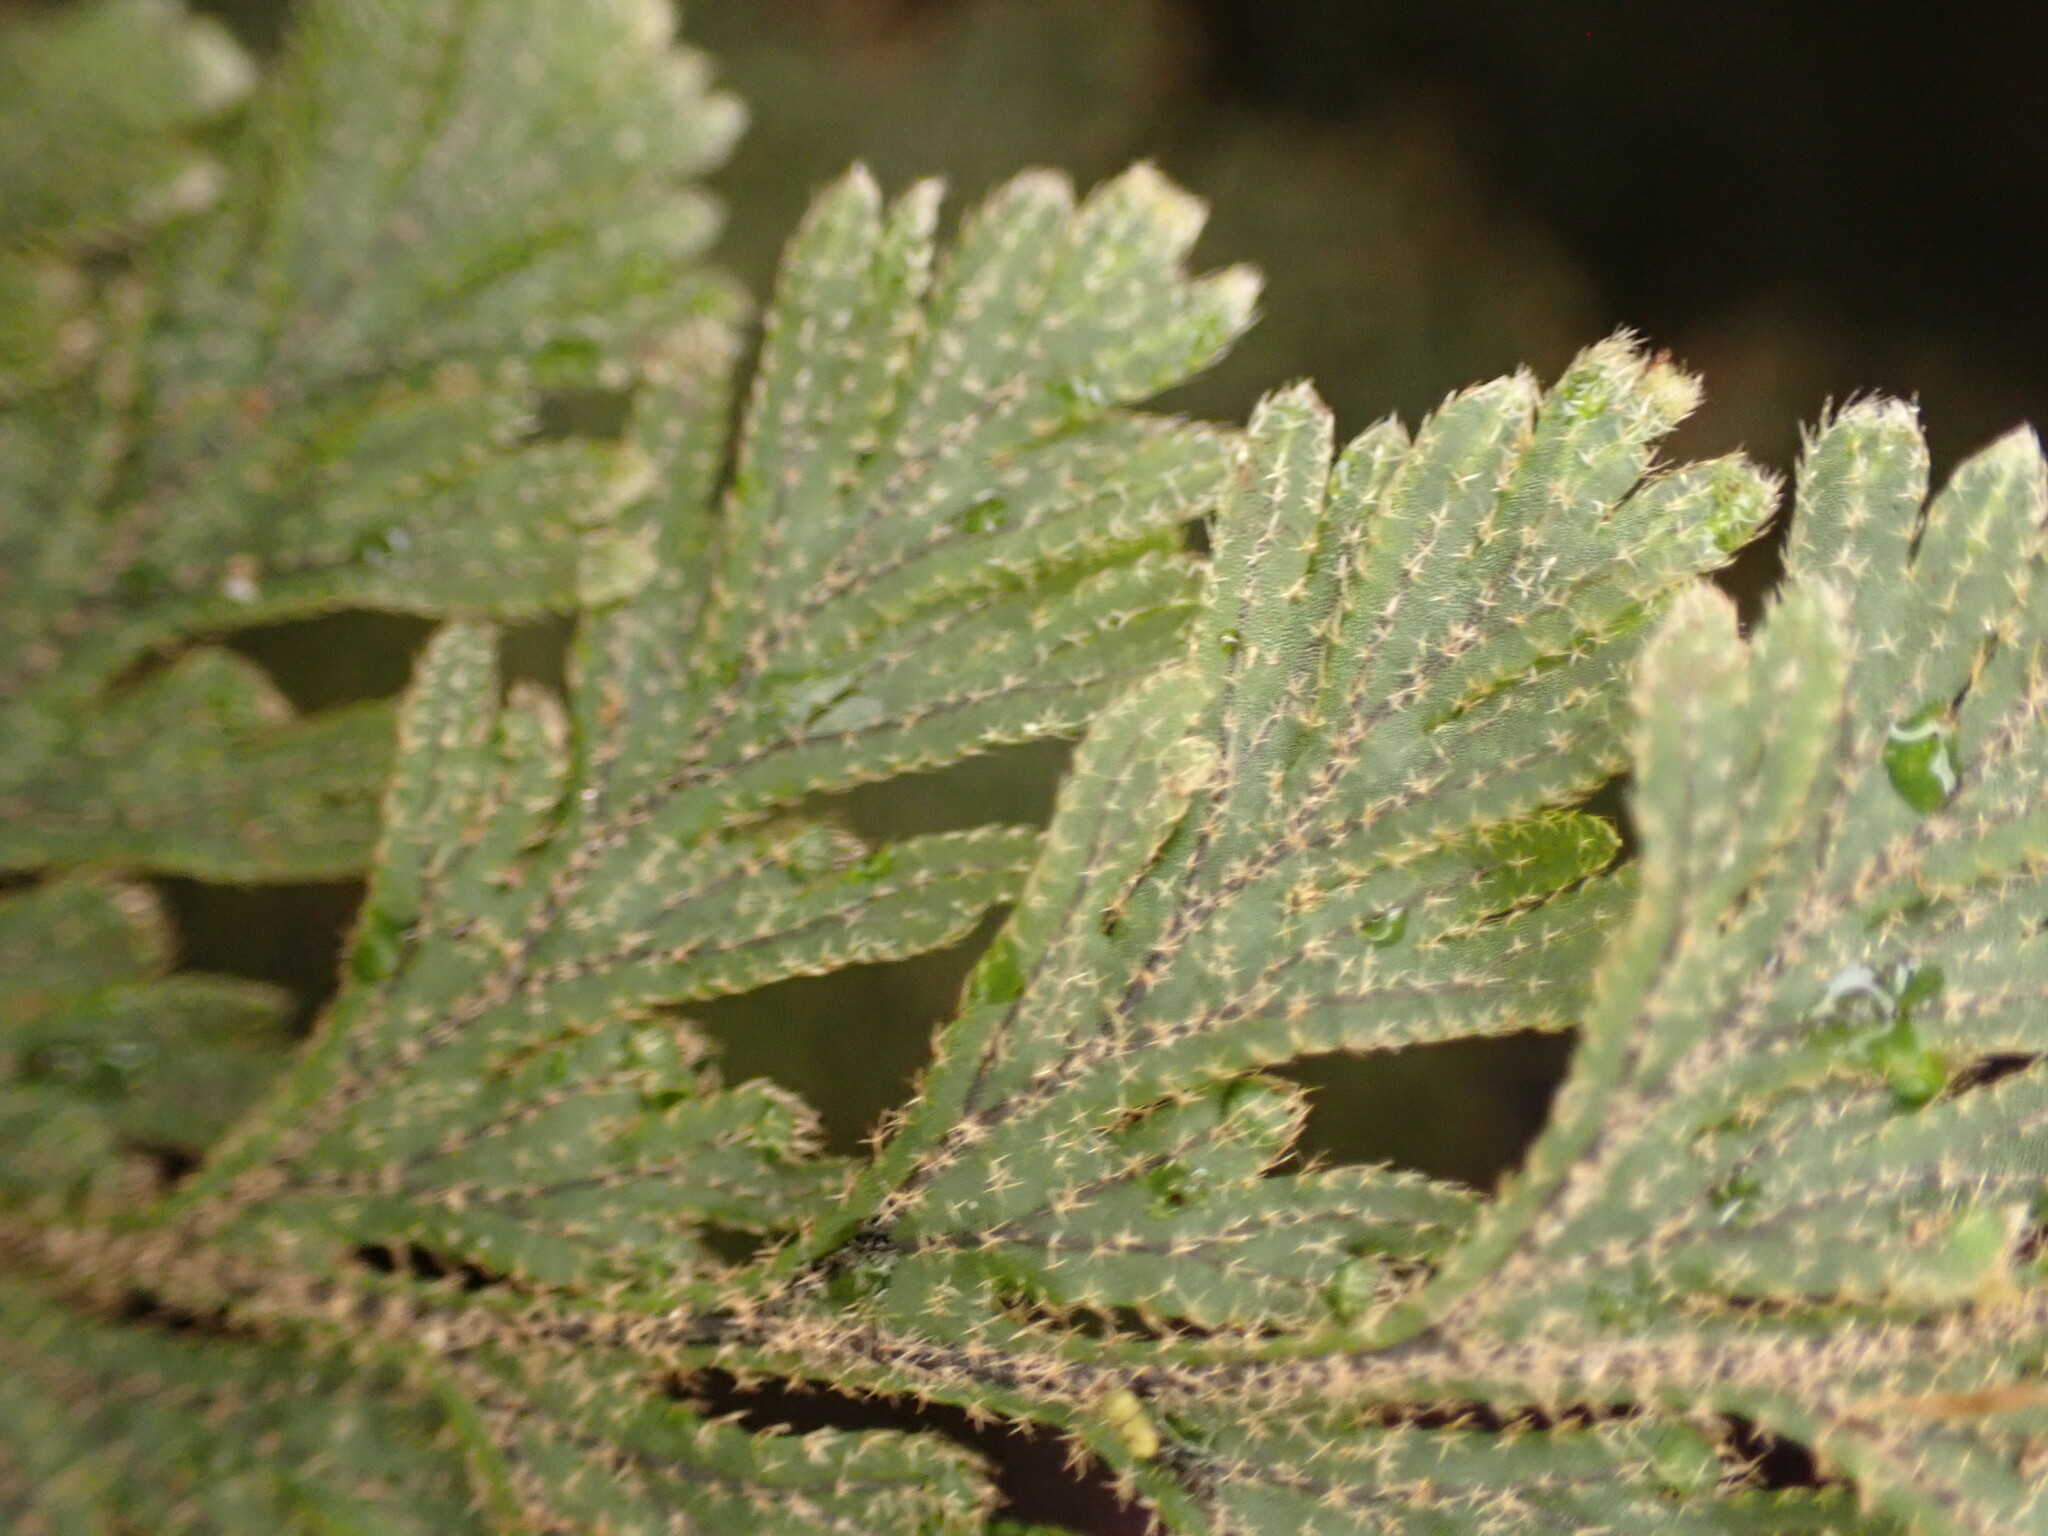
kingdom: Plantae
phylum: Tracheophyta
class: Polypodiopsida
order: Hymenophyllales
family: Hymenophyllaceae
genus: Hymenophyllum
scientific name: Hymenophyllum frankliniae
